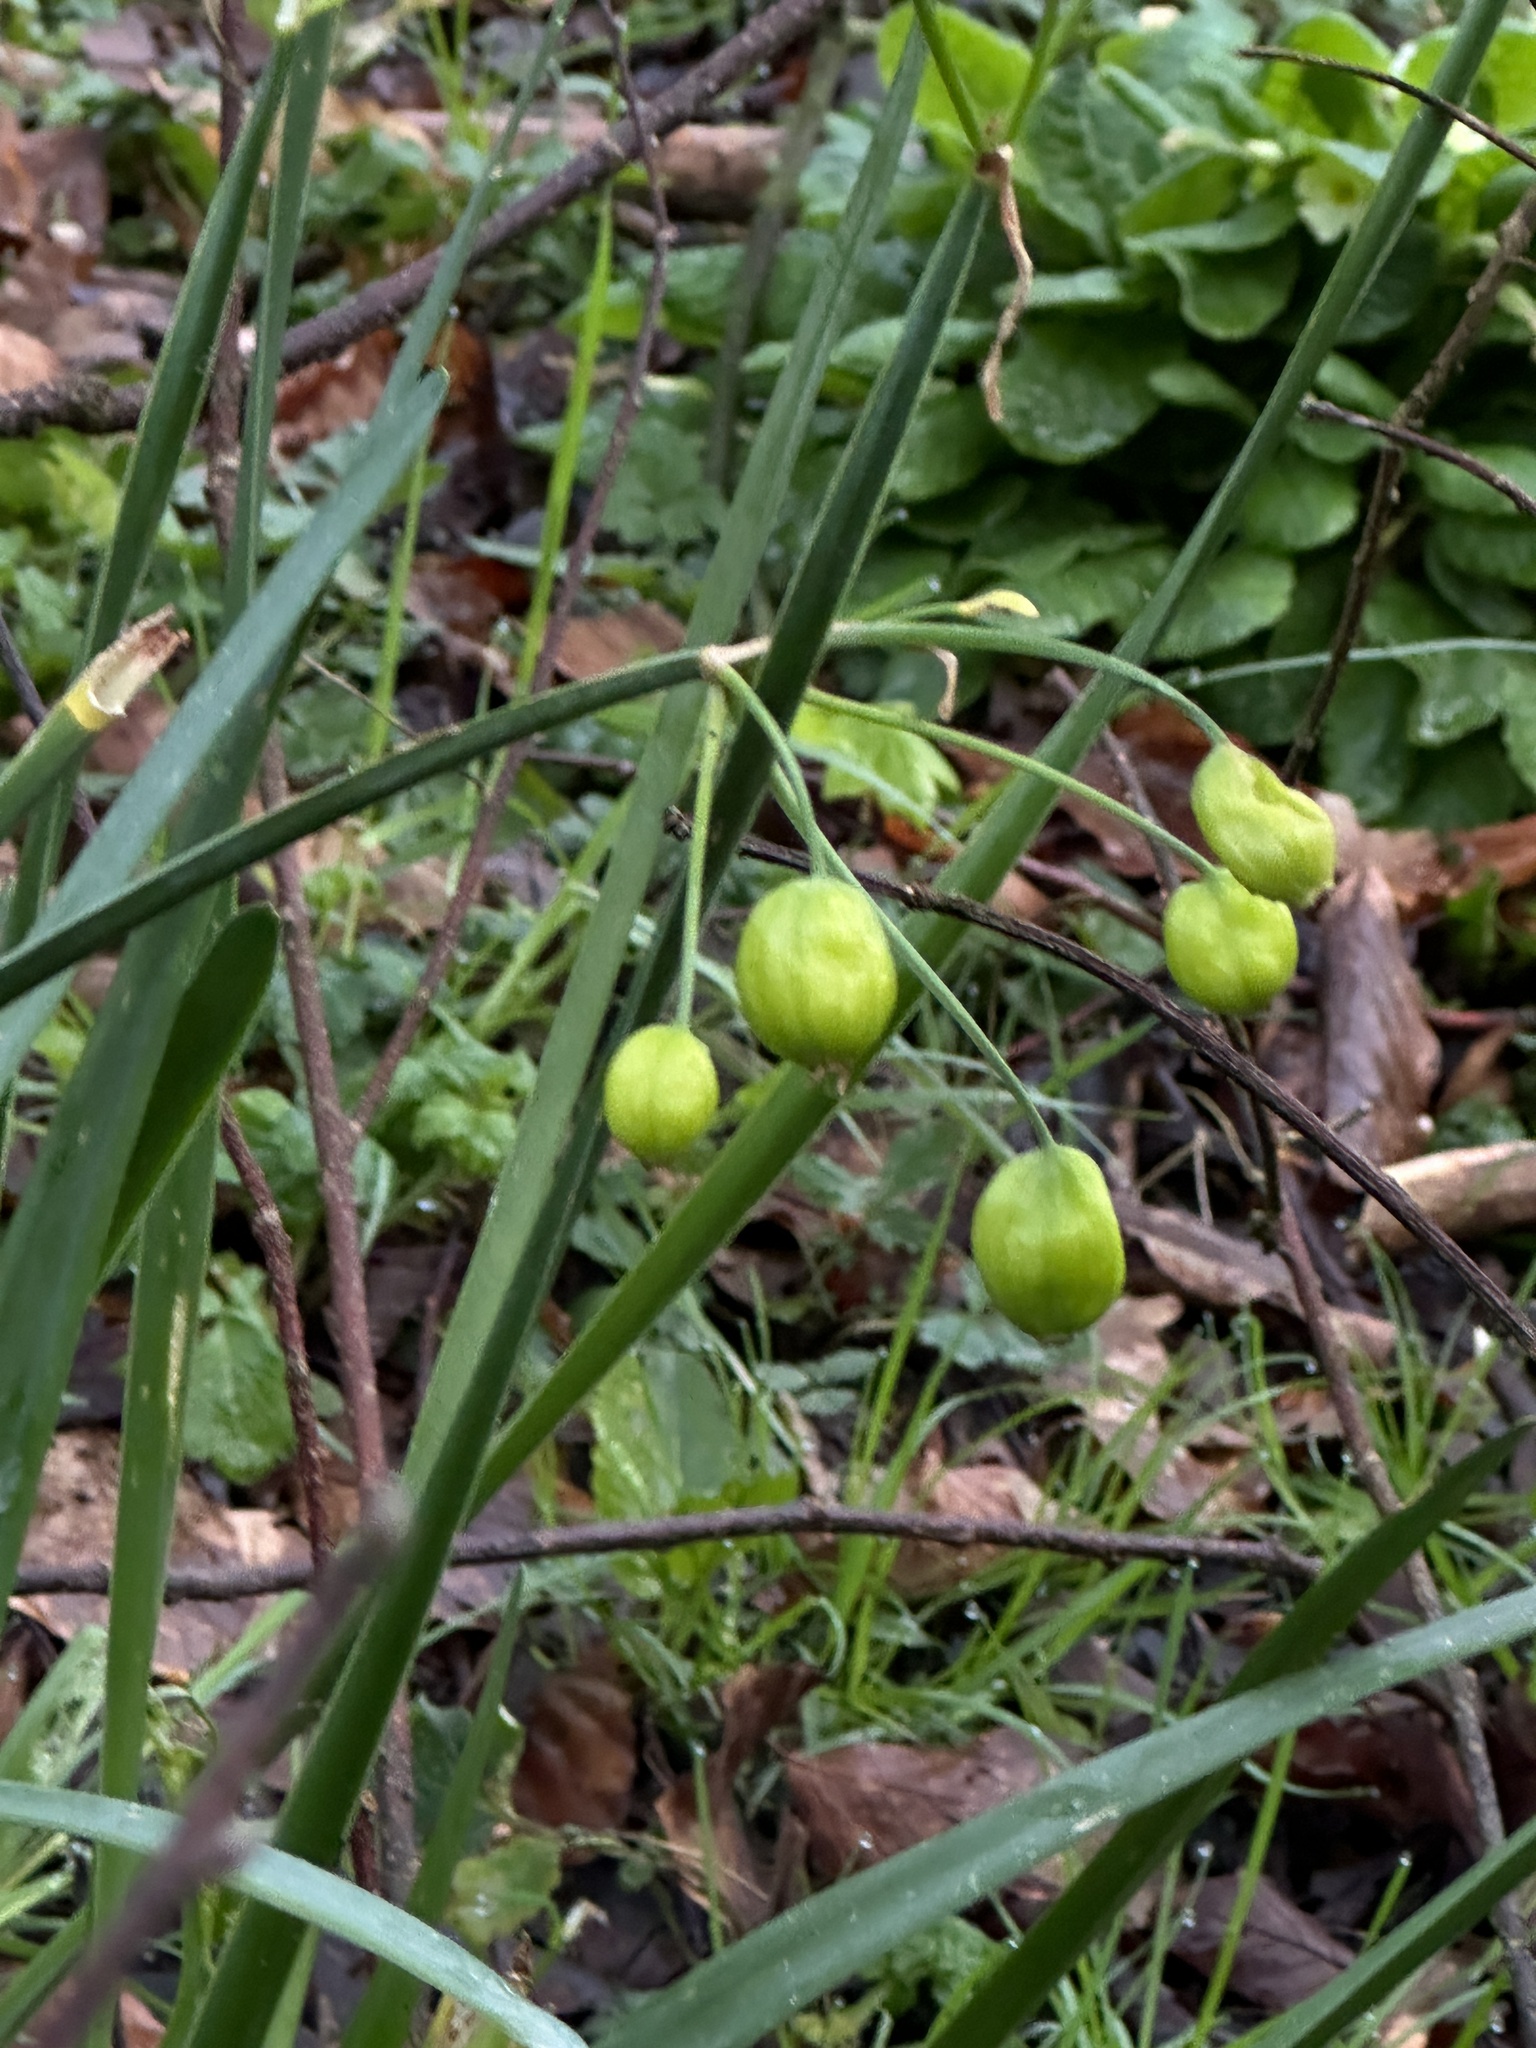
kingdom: Plantae
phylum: Tracheophyta
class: Liliopsida
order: Asparagales
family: Amaryllidaceae
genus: Leucojum
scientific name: Leucojum aestivum
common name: Summer snowflake
